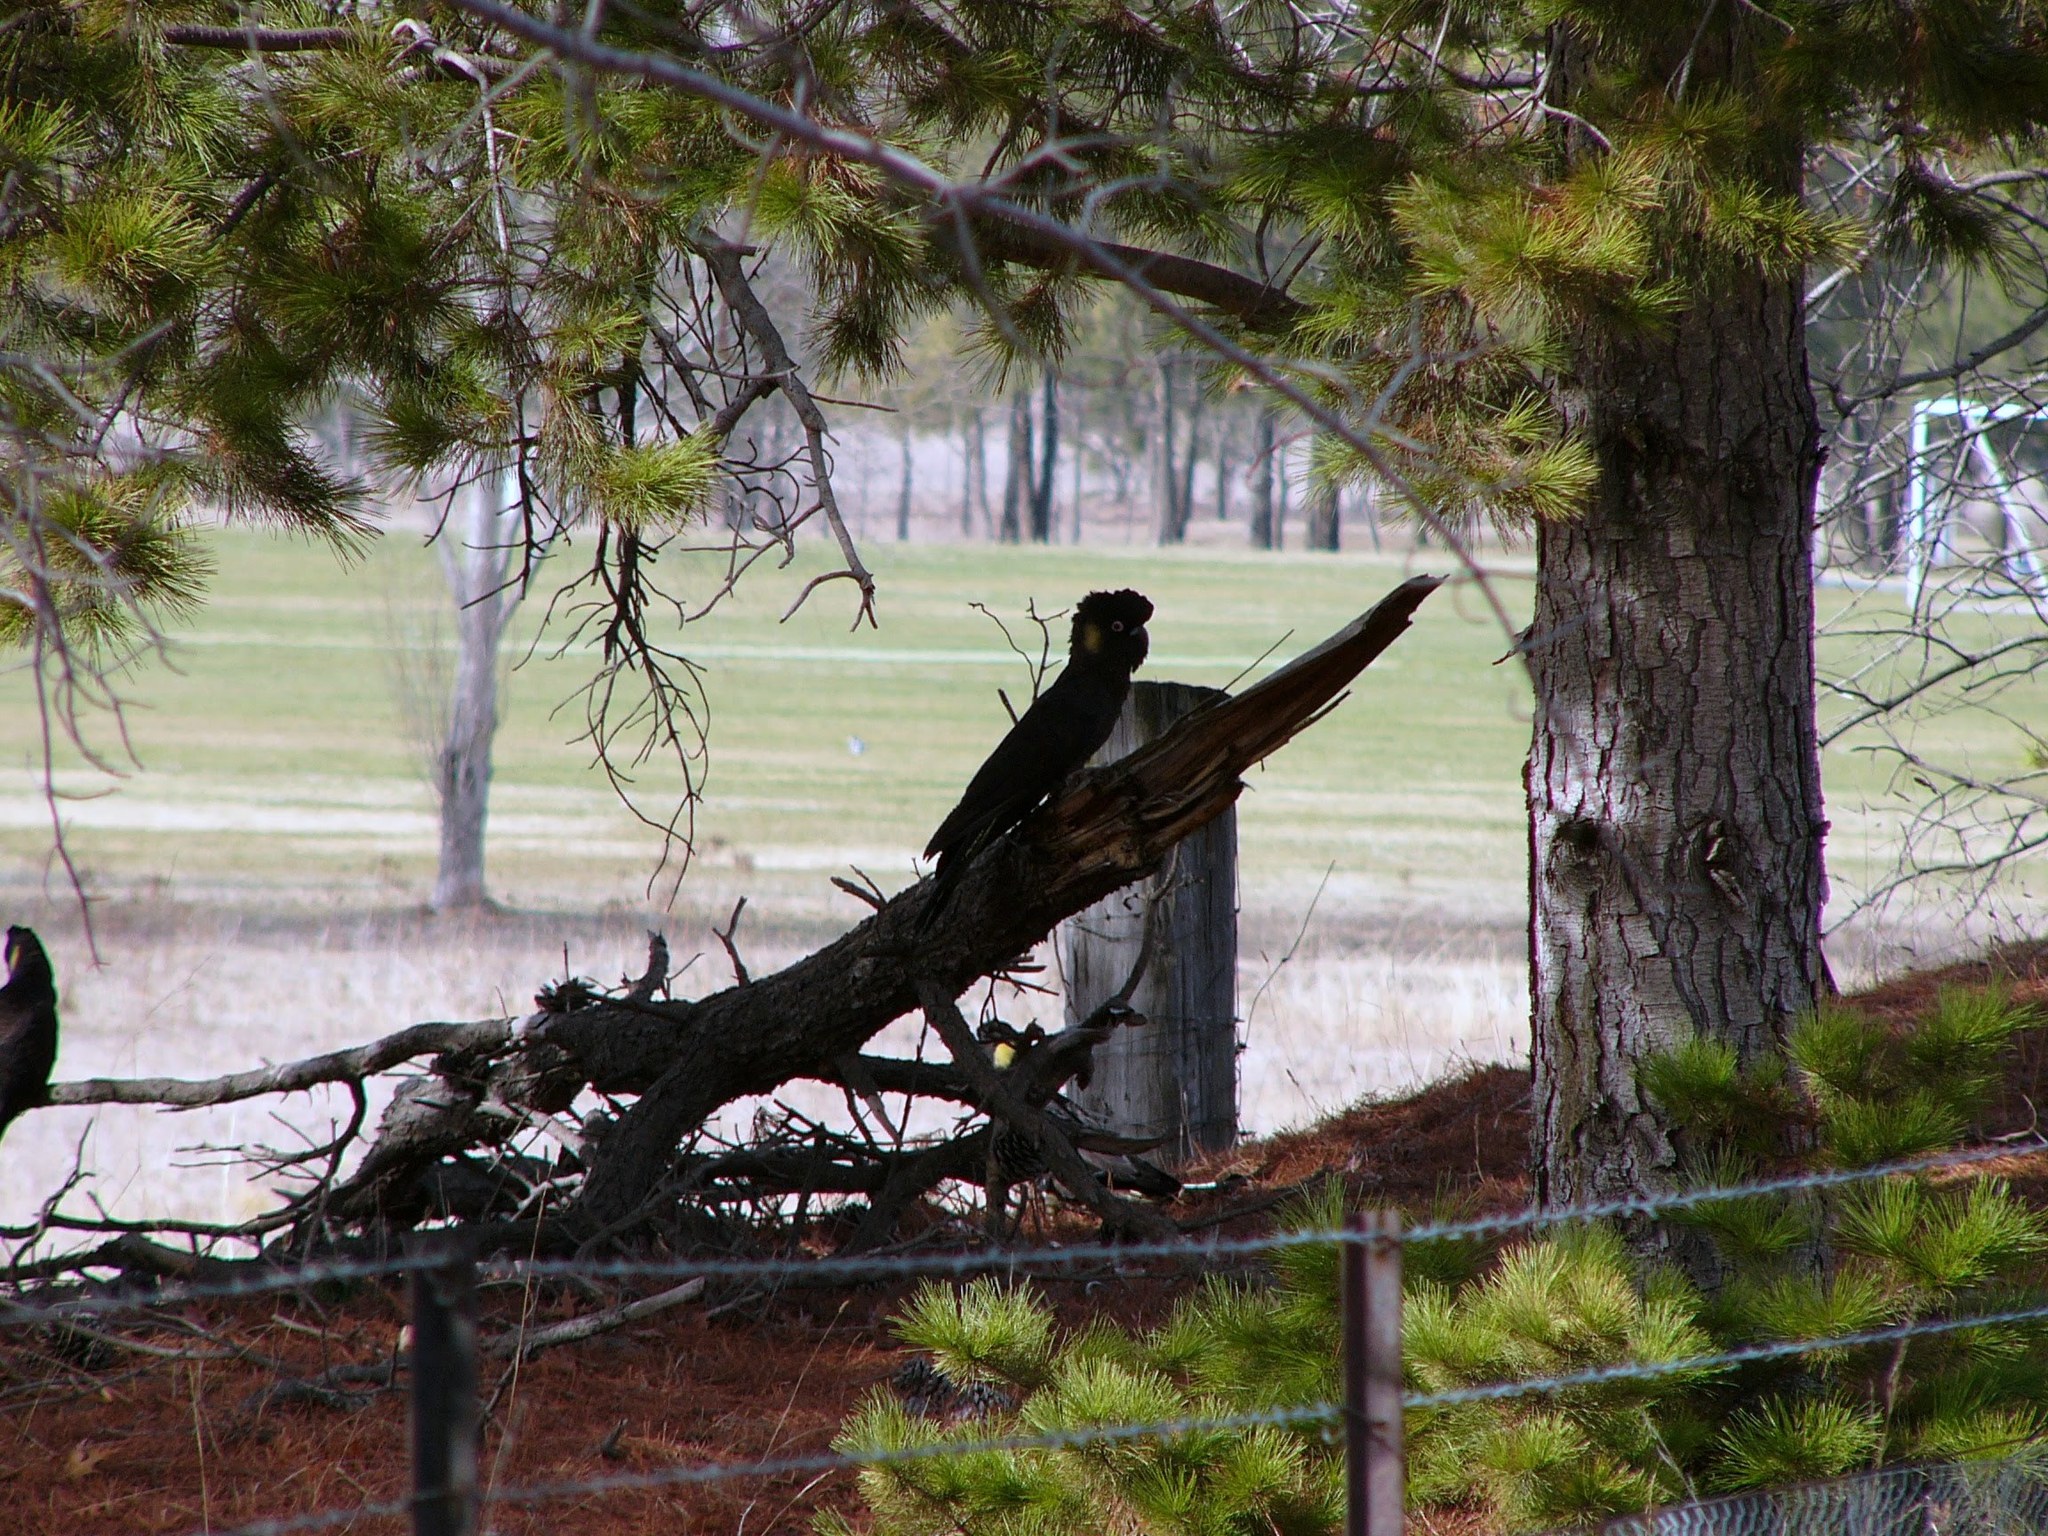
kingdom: Animalia
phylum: Chordata
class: Aves
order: Psittaciformes
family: Cacatuidae
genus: Zanda
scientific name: Zanda funerea
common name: Yellow-tailed black-cockatoo
